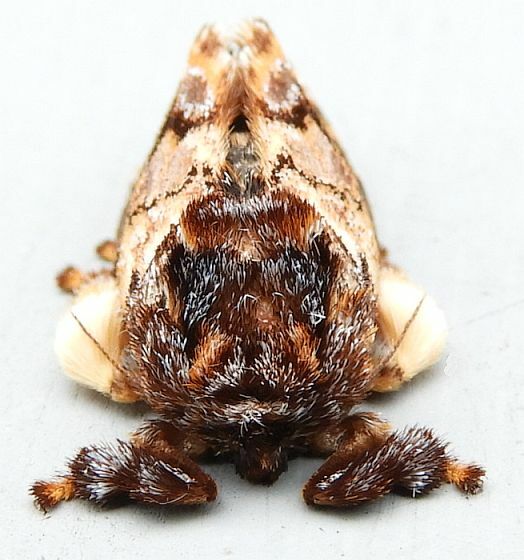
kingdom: Animalia
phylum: Arthropoda
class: Insecta
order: Lepidoptera
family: Limacodidae
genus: Phobetron
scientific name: Phobetron pithecium
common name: Hag moth
